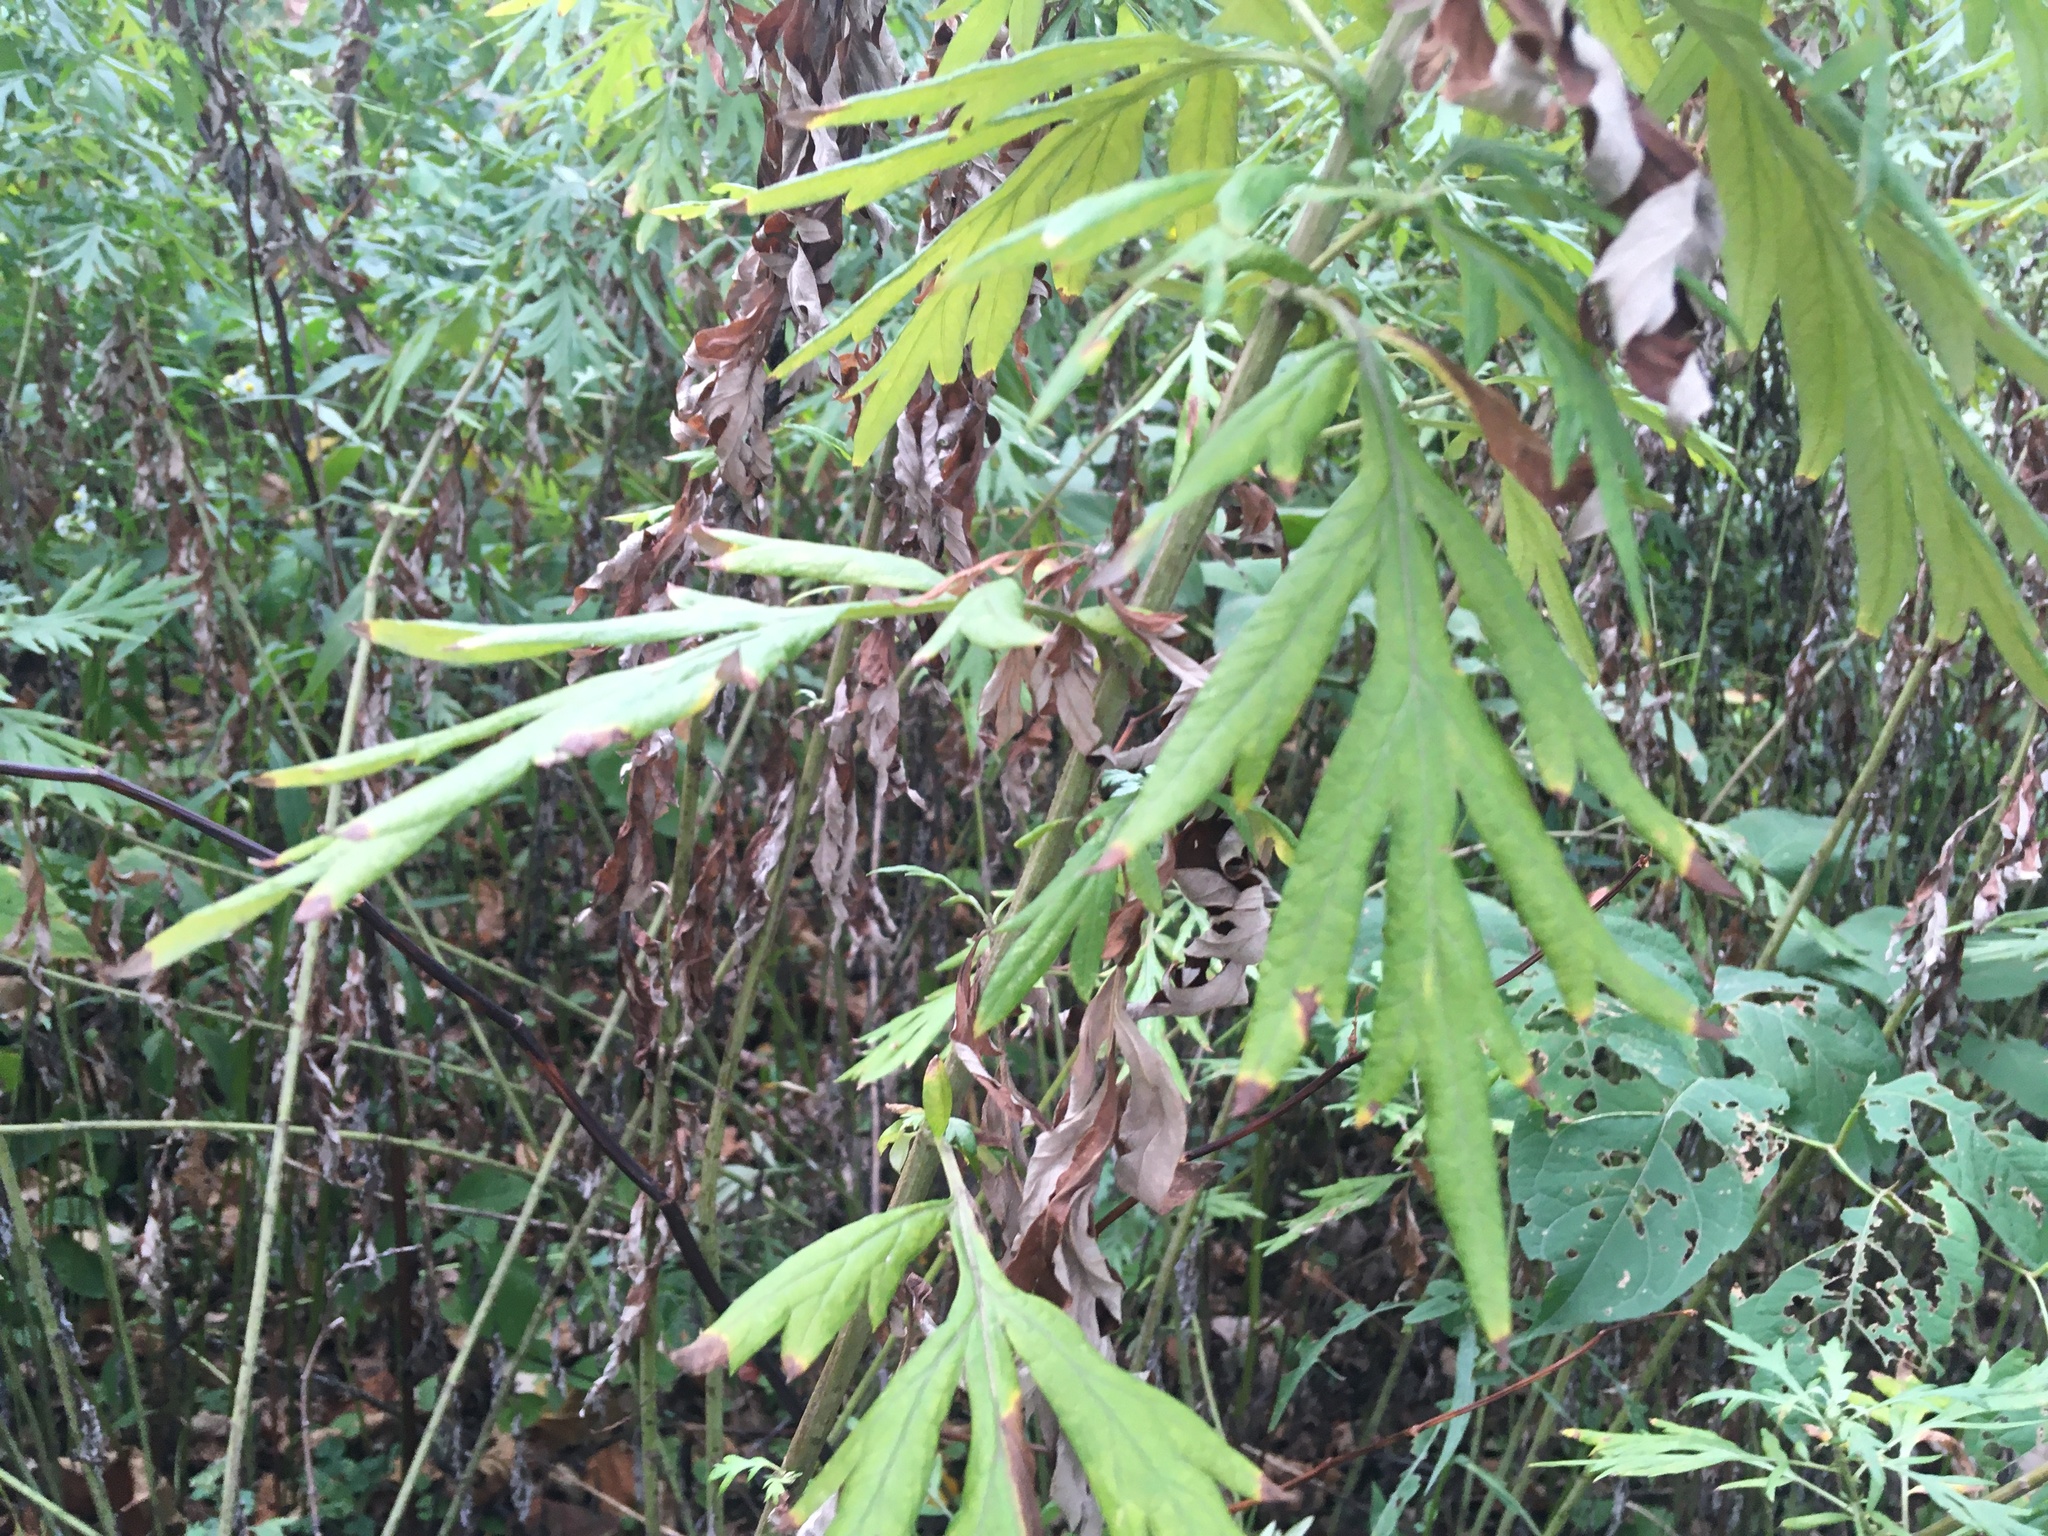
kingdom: Plantae
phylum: Tracheophyta
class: Magnoliopsida
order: Asterales
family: Asteraceae
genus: Artemisia
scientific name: Artemisia vulgaris
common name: Mugwort
